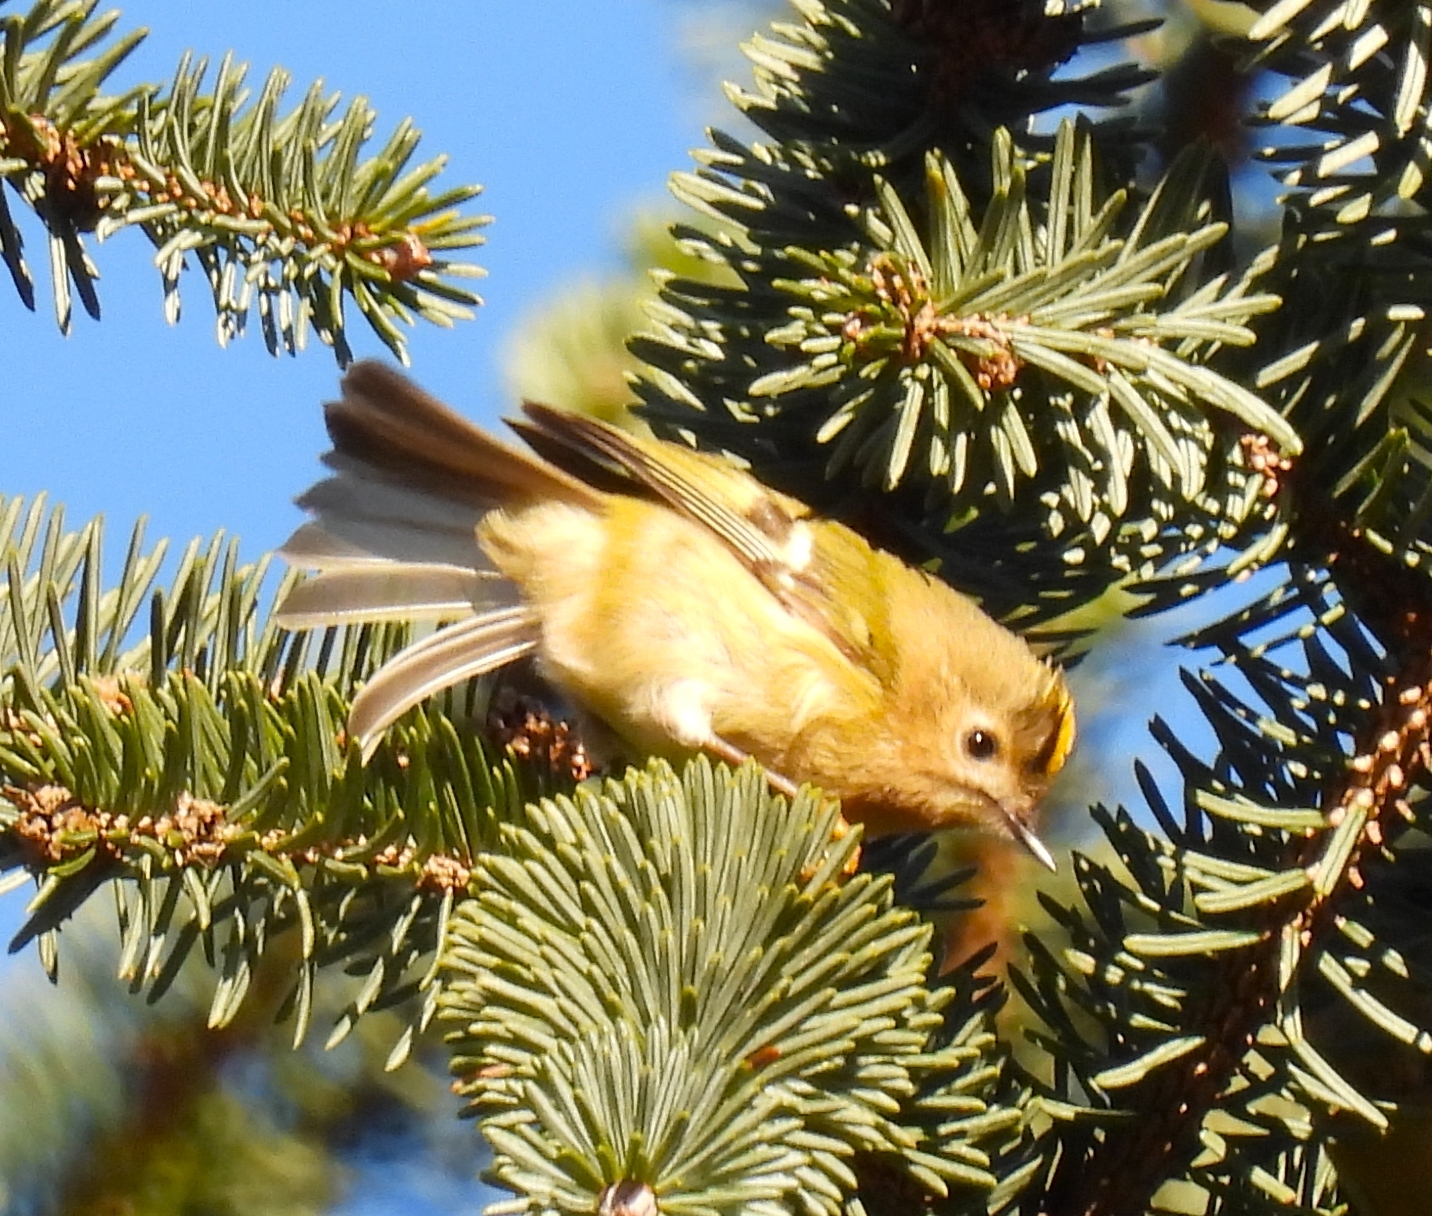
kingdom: Animalia
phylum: Chordata
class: Aves
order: Passeriformes
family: Regulidae
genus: Regulus
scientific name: Regulus regulus
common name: Goldcrest
